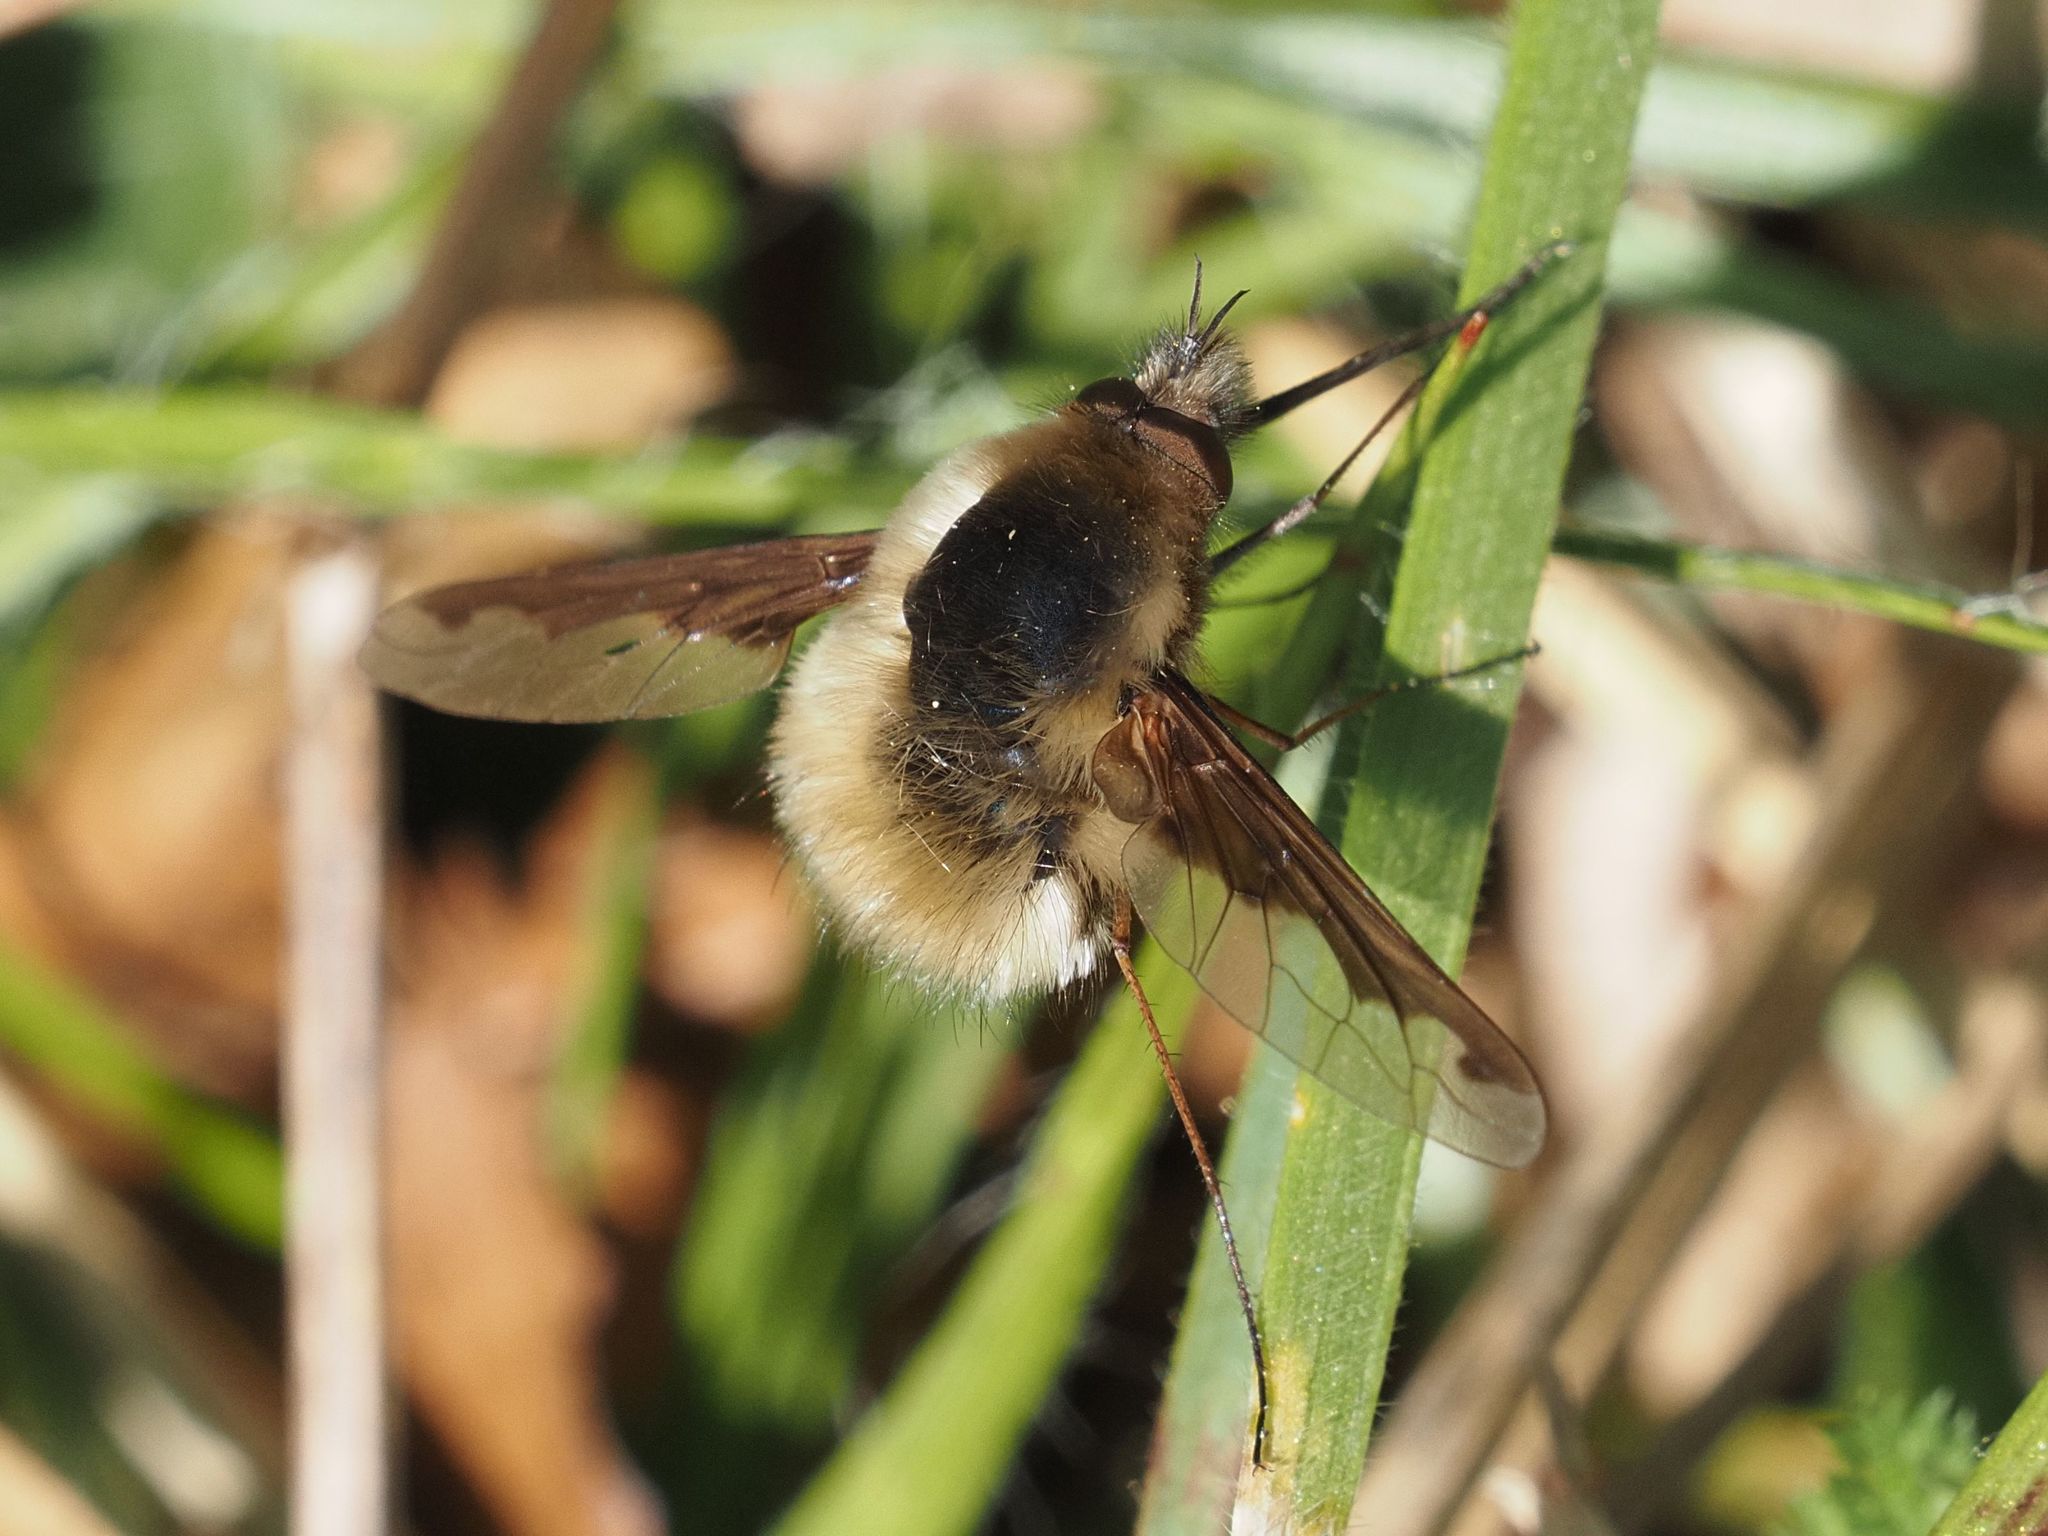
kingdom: Animalia
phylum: Arthropoda
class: Insecta
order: Diptera
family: Bombyliidae
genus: Bombylius
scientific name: Bombylius major
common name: Bee fly
